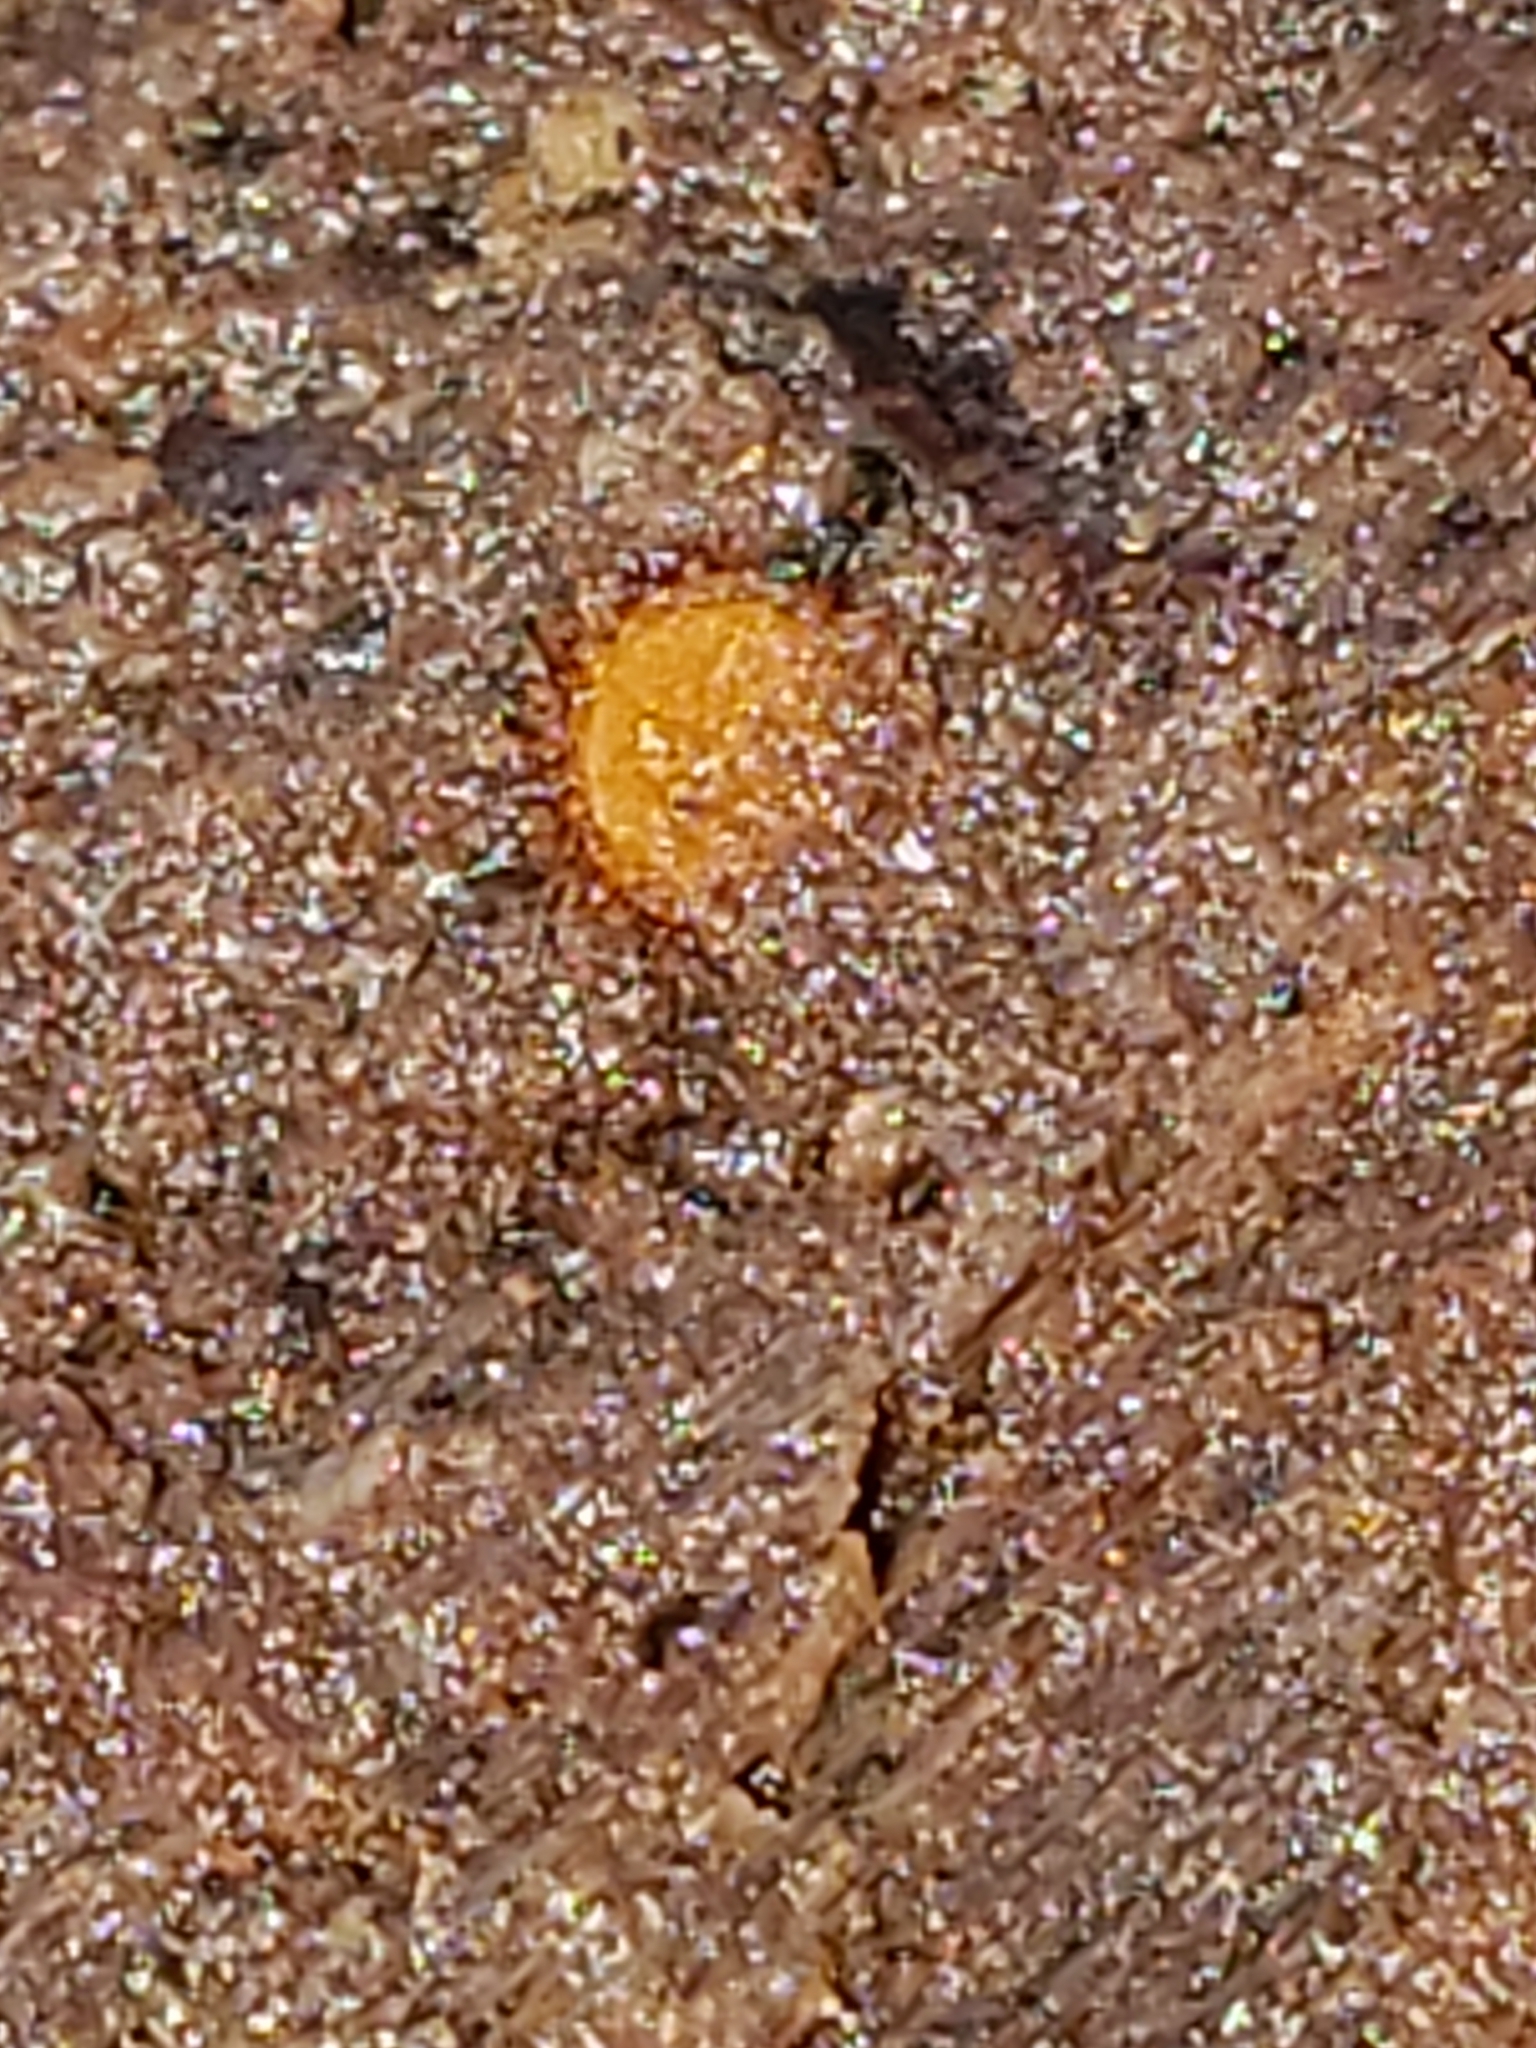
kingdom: Fungi
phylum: Ascomycota
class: Pezizomycetes
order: Pezizales
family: Pyronemataceae
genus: Scutellinia
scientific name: Scutellinia
